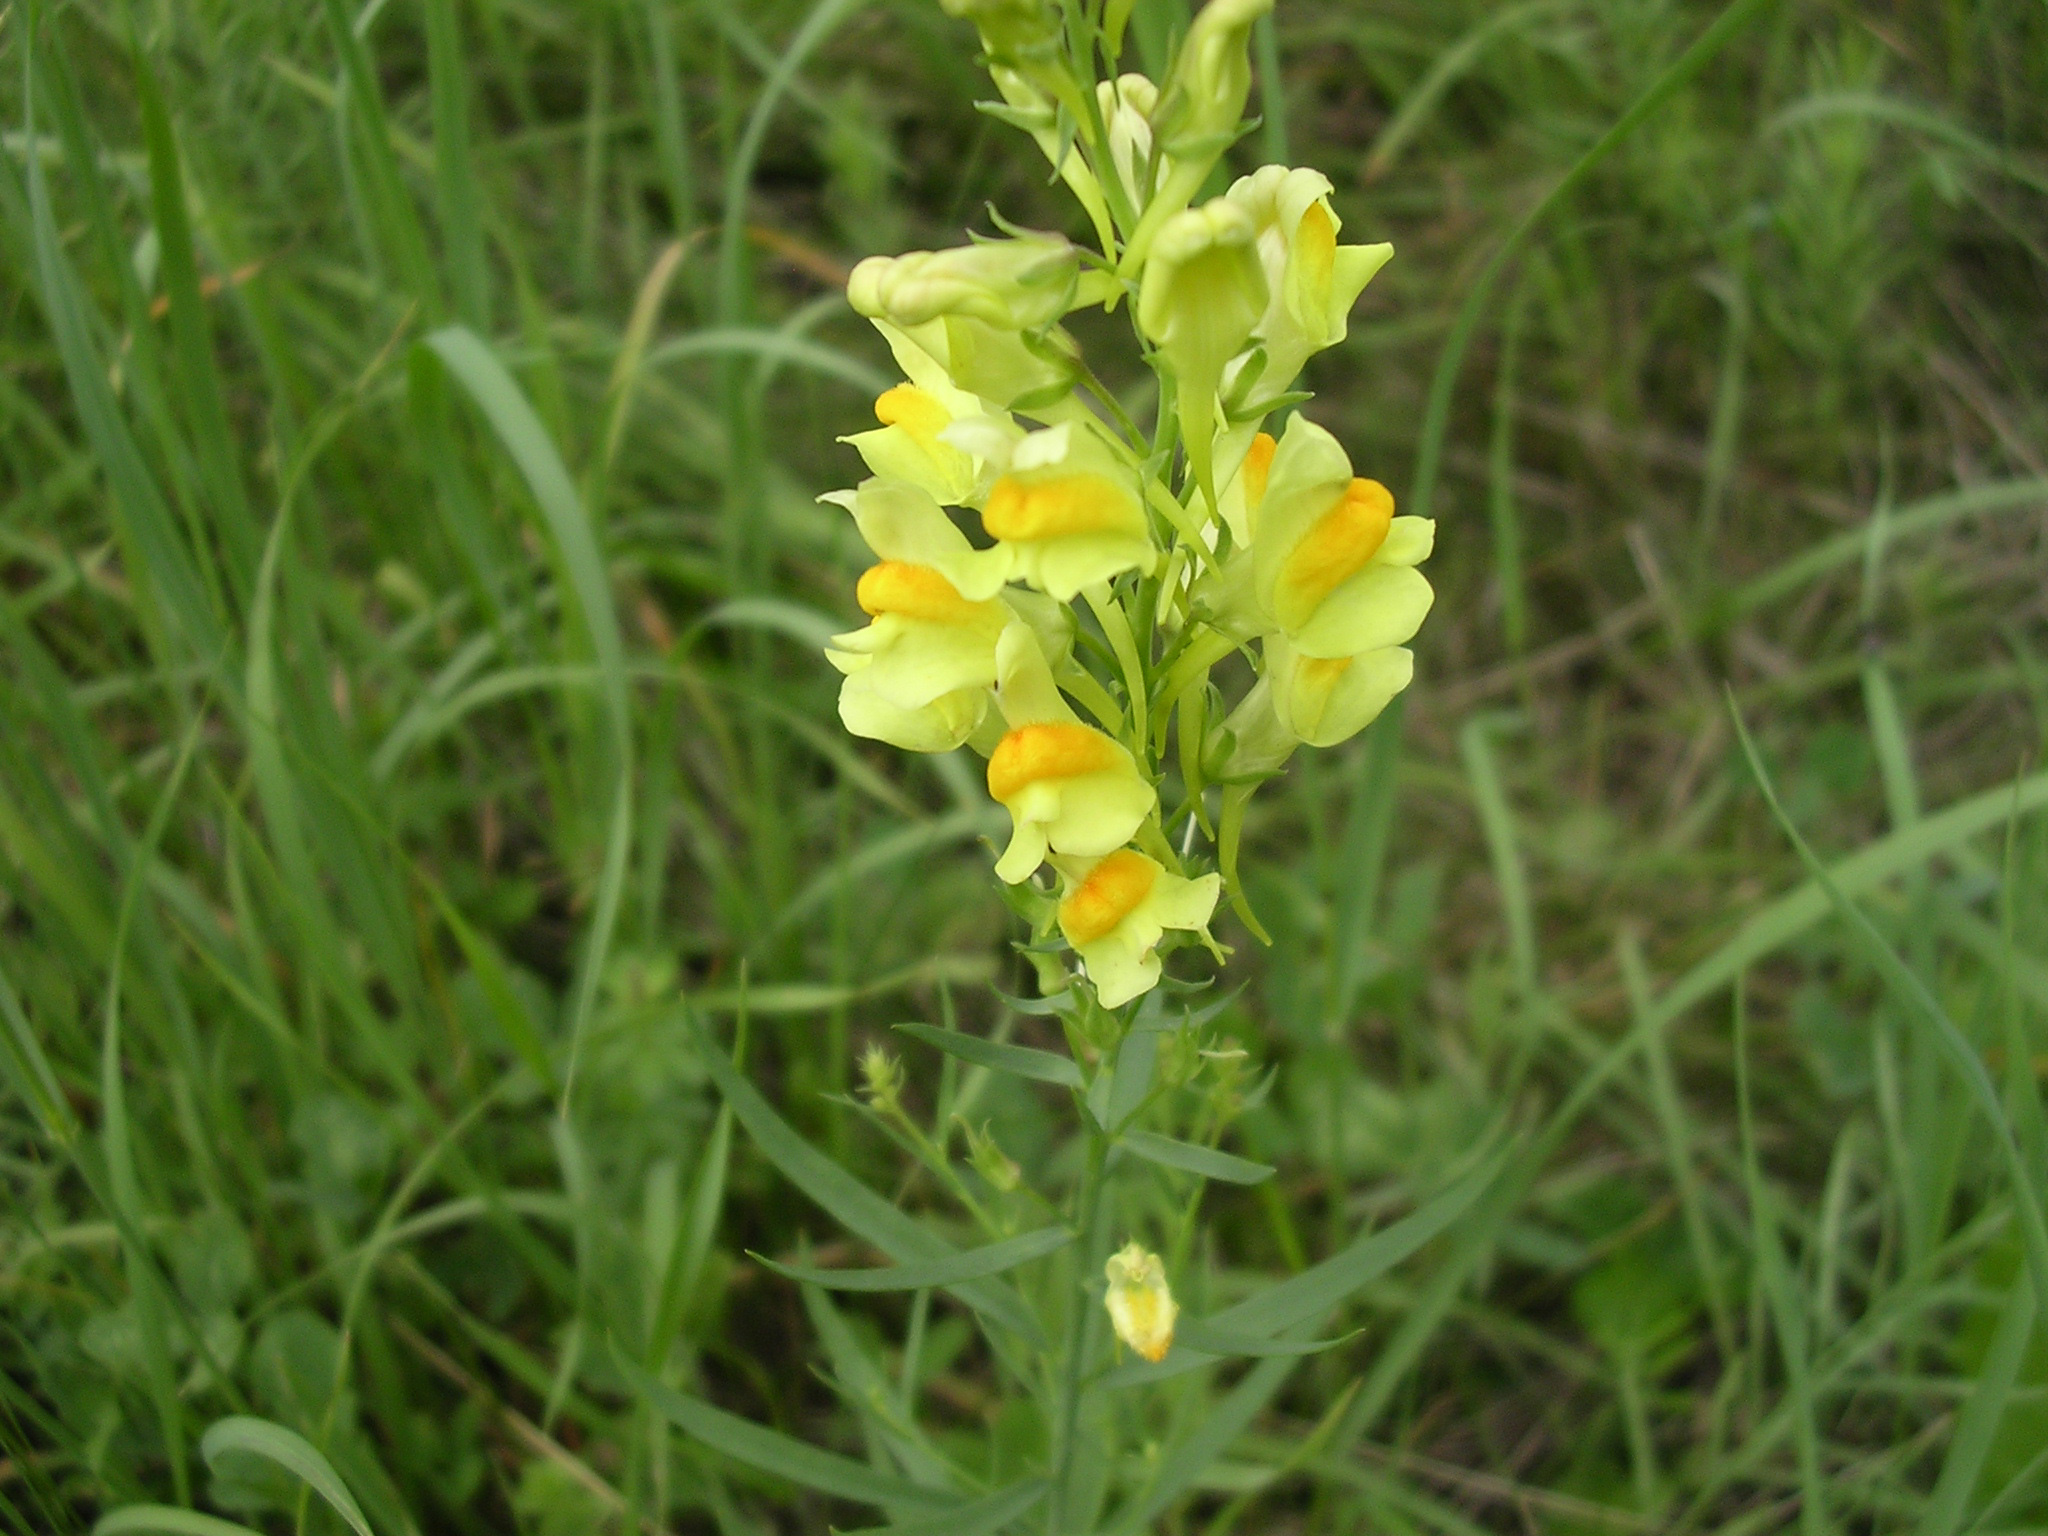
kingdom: Plantae
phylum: Tracheophyta
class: Magnoliopsida
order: Lamiales
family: Plantaginaceae
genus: Linaria
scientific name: Linaria vulgaris
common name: Butter and eggs
